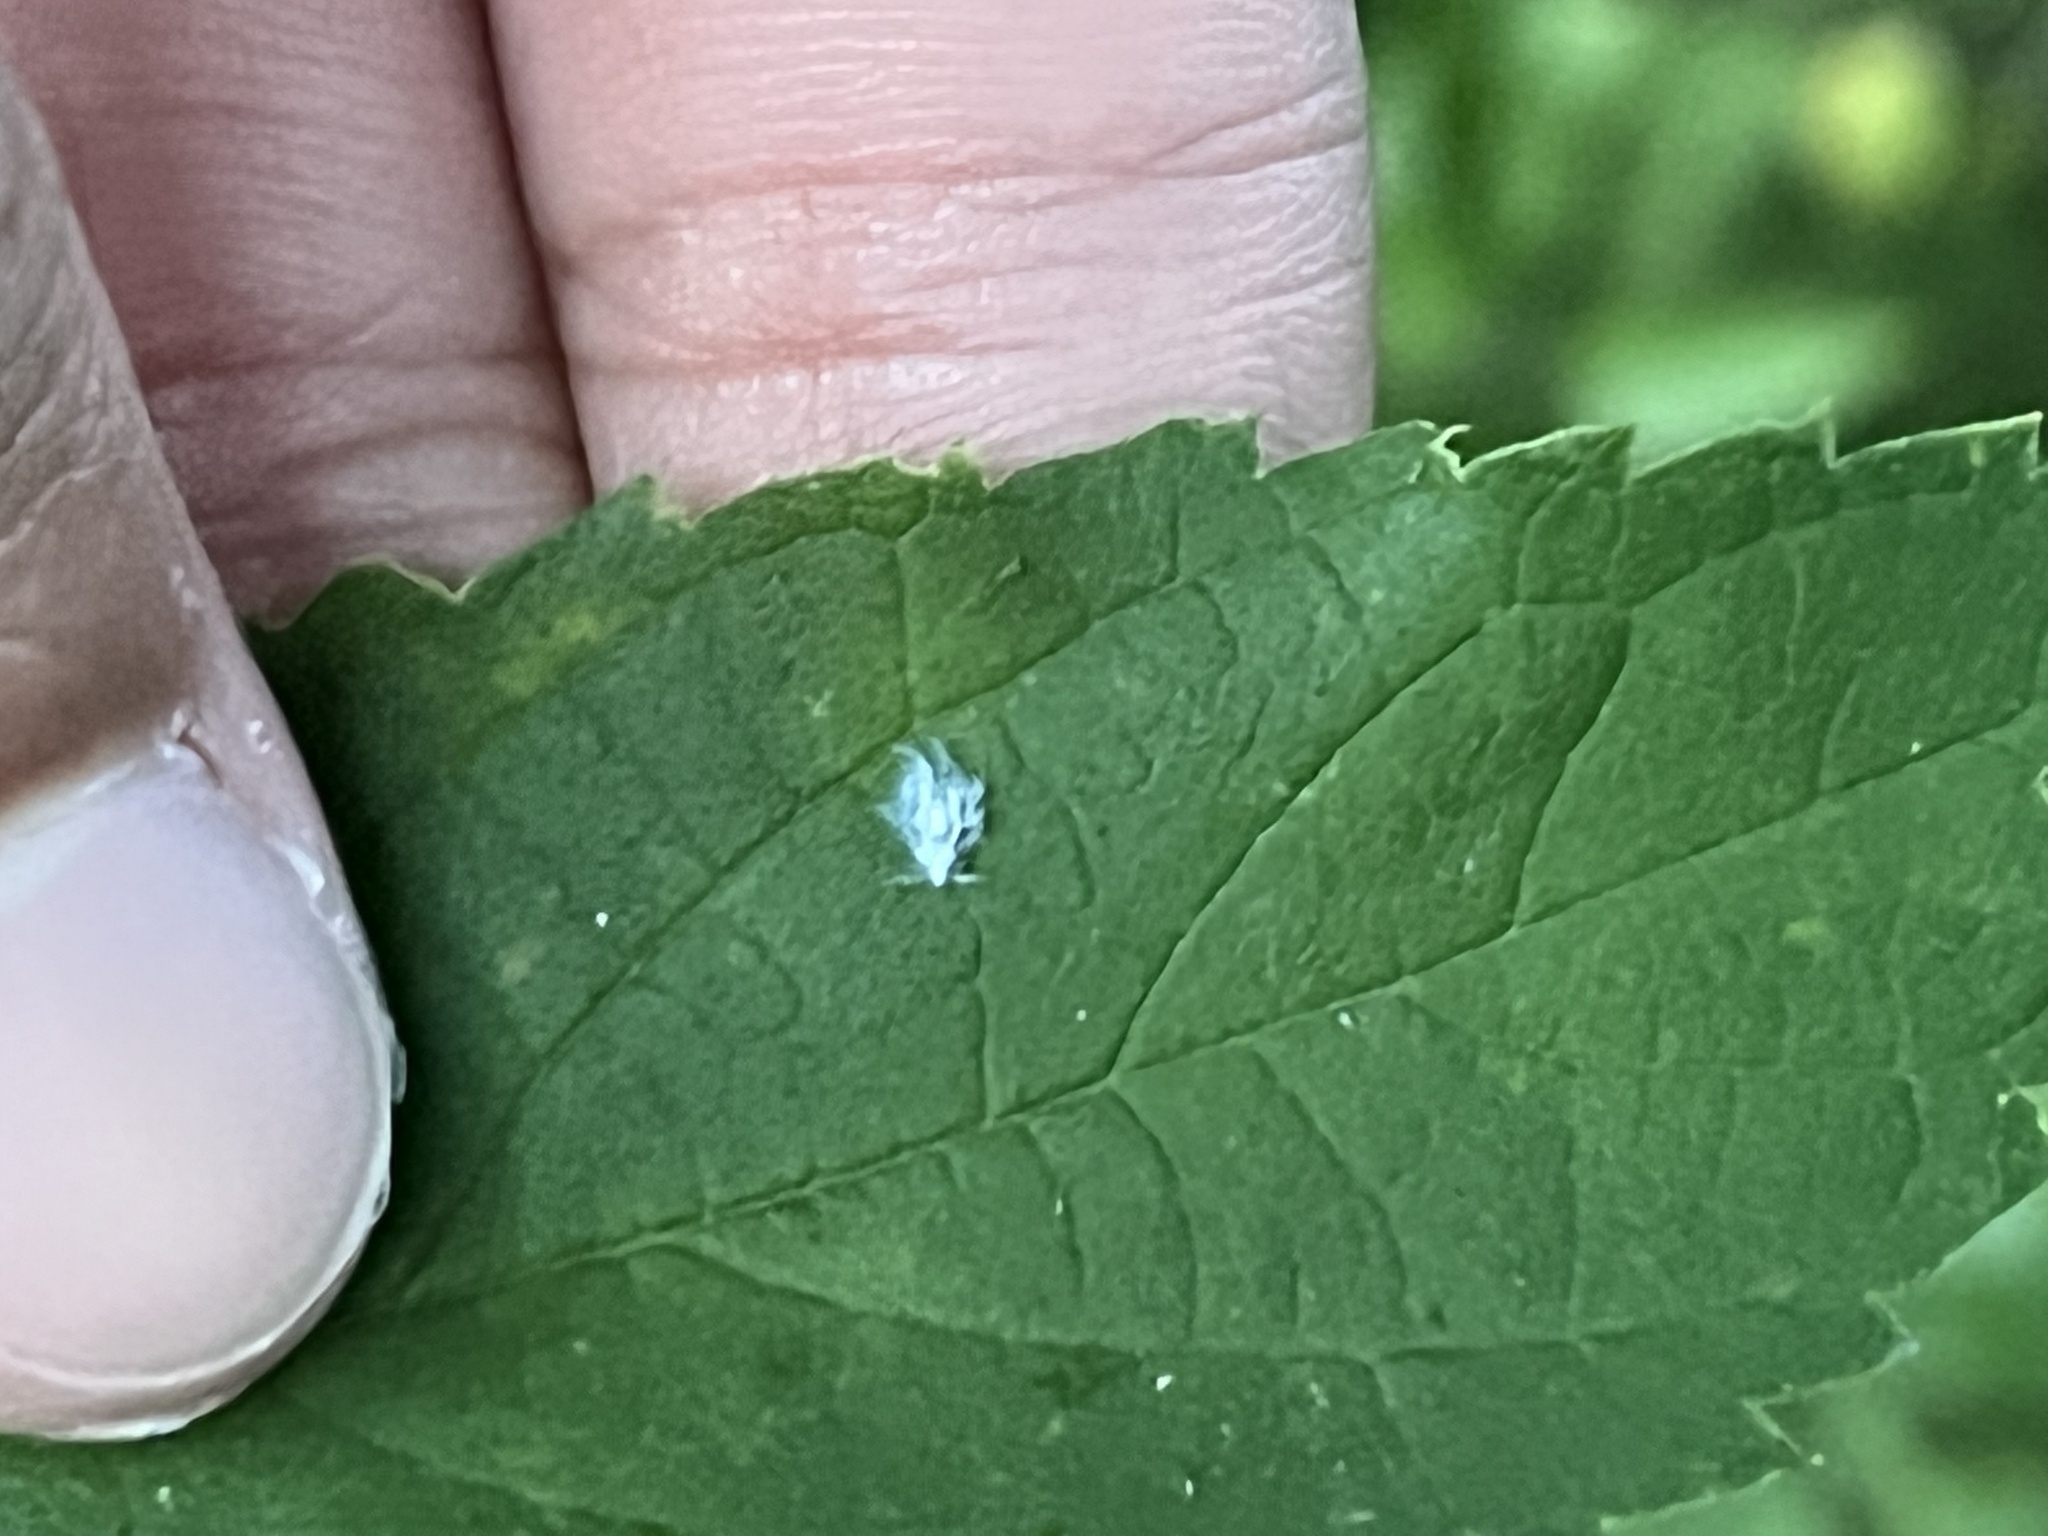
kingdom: Animalia
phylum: Arthropoda
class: Insecta
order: Hemiptera
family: Aphididae
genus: Shivaphis
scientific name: Shivaphis celti
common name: Asian wooly hackberry aphid
